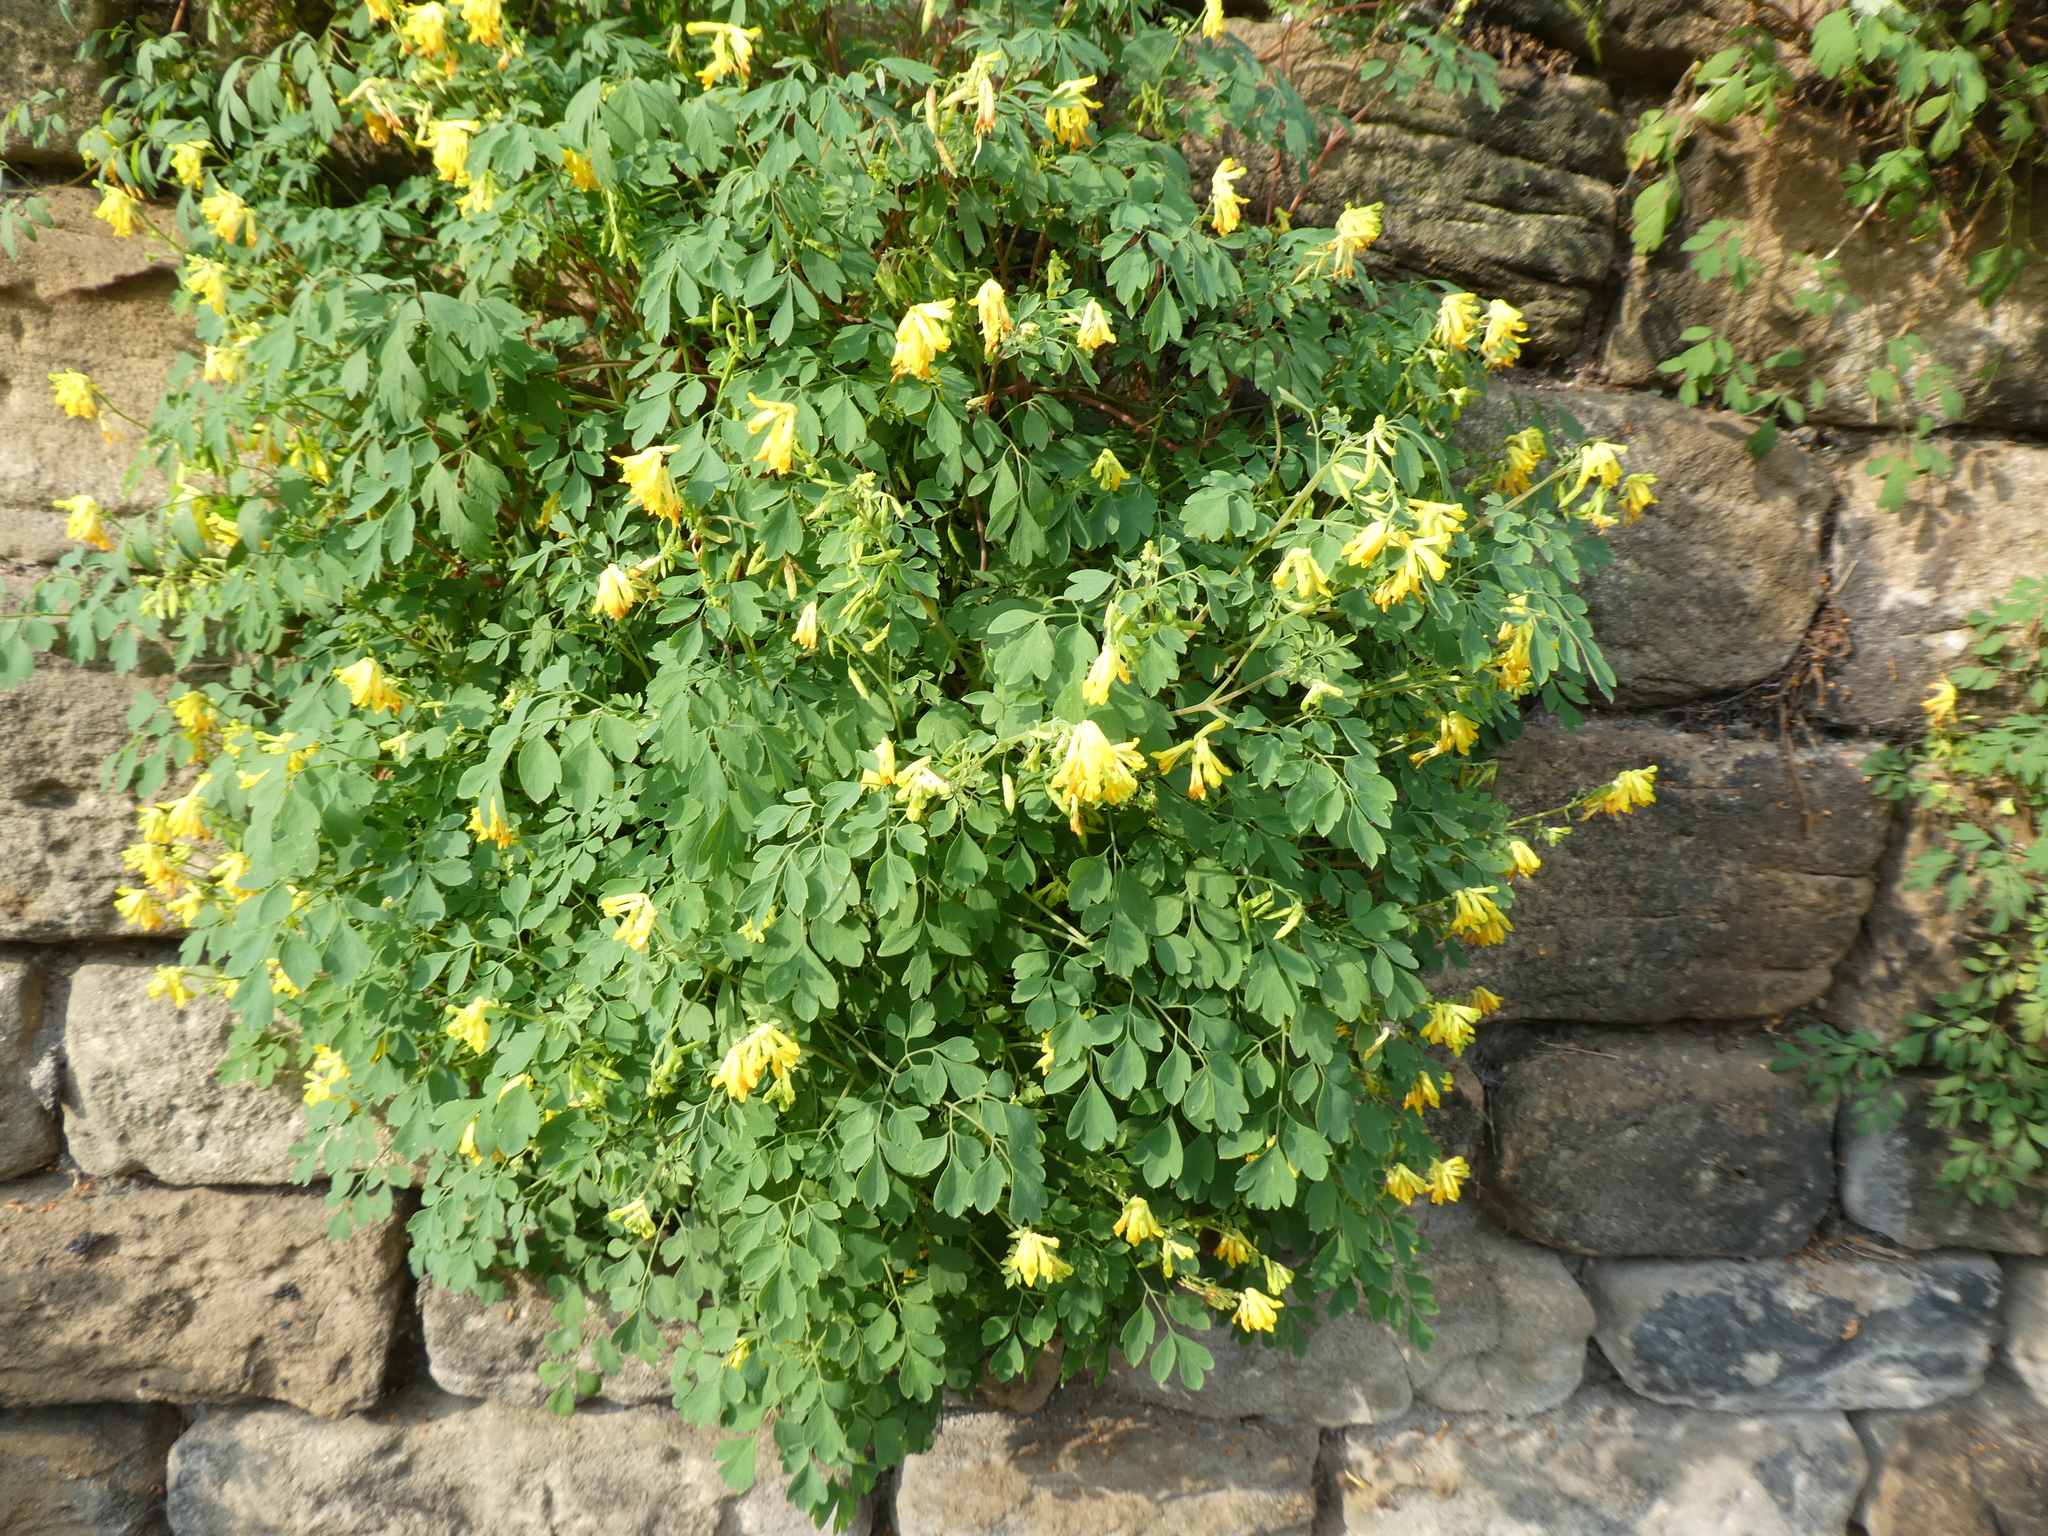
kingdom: Plantae
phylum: Tracheophyta
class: Magnoliopsida
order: Ranunculales
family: Papaveraceae
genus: Pseudofumaria
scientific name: Pseudofumaria lutea
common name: Yellow corydalis
